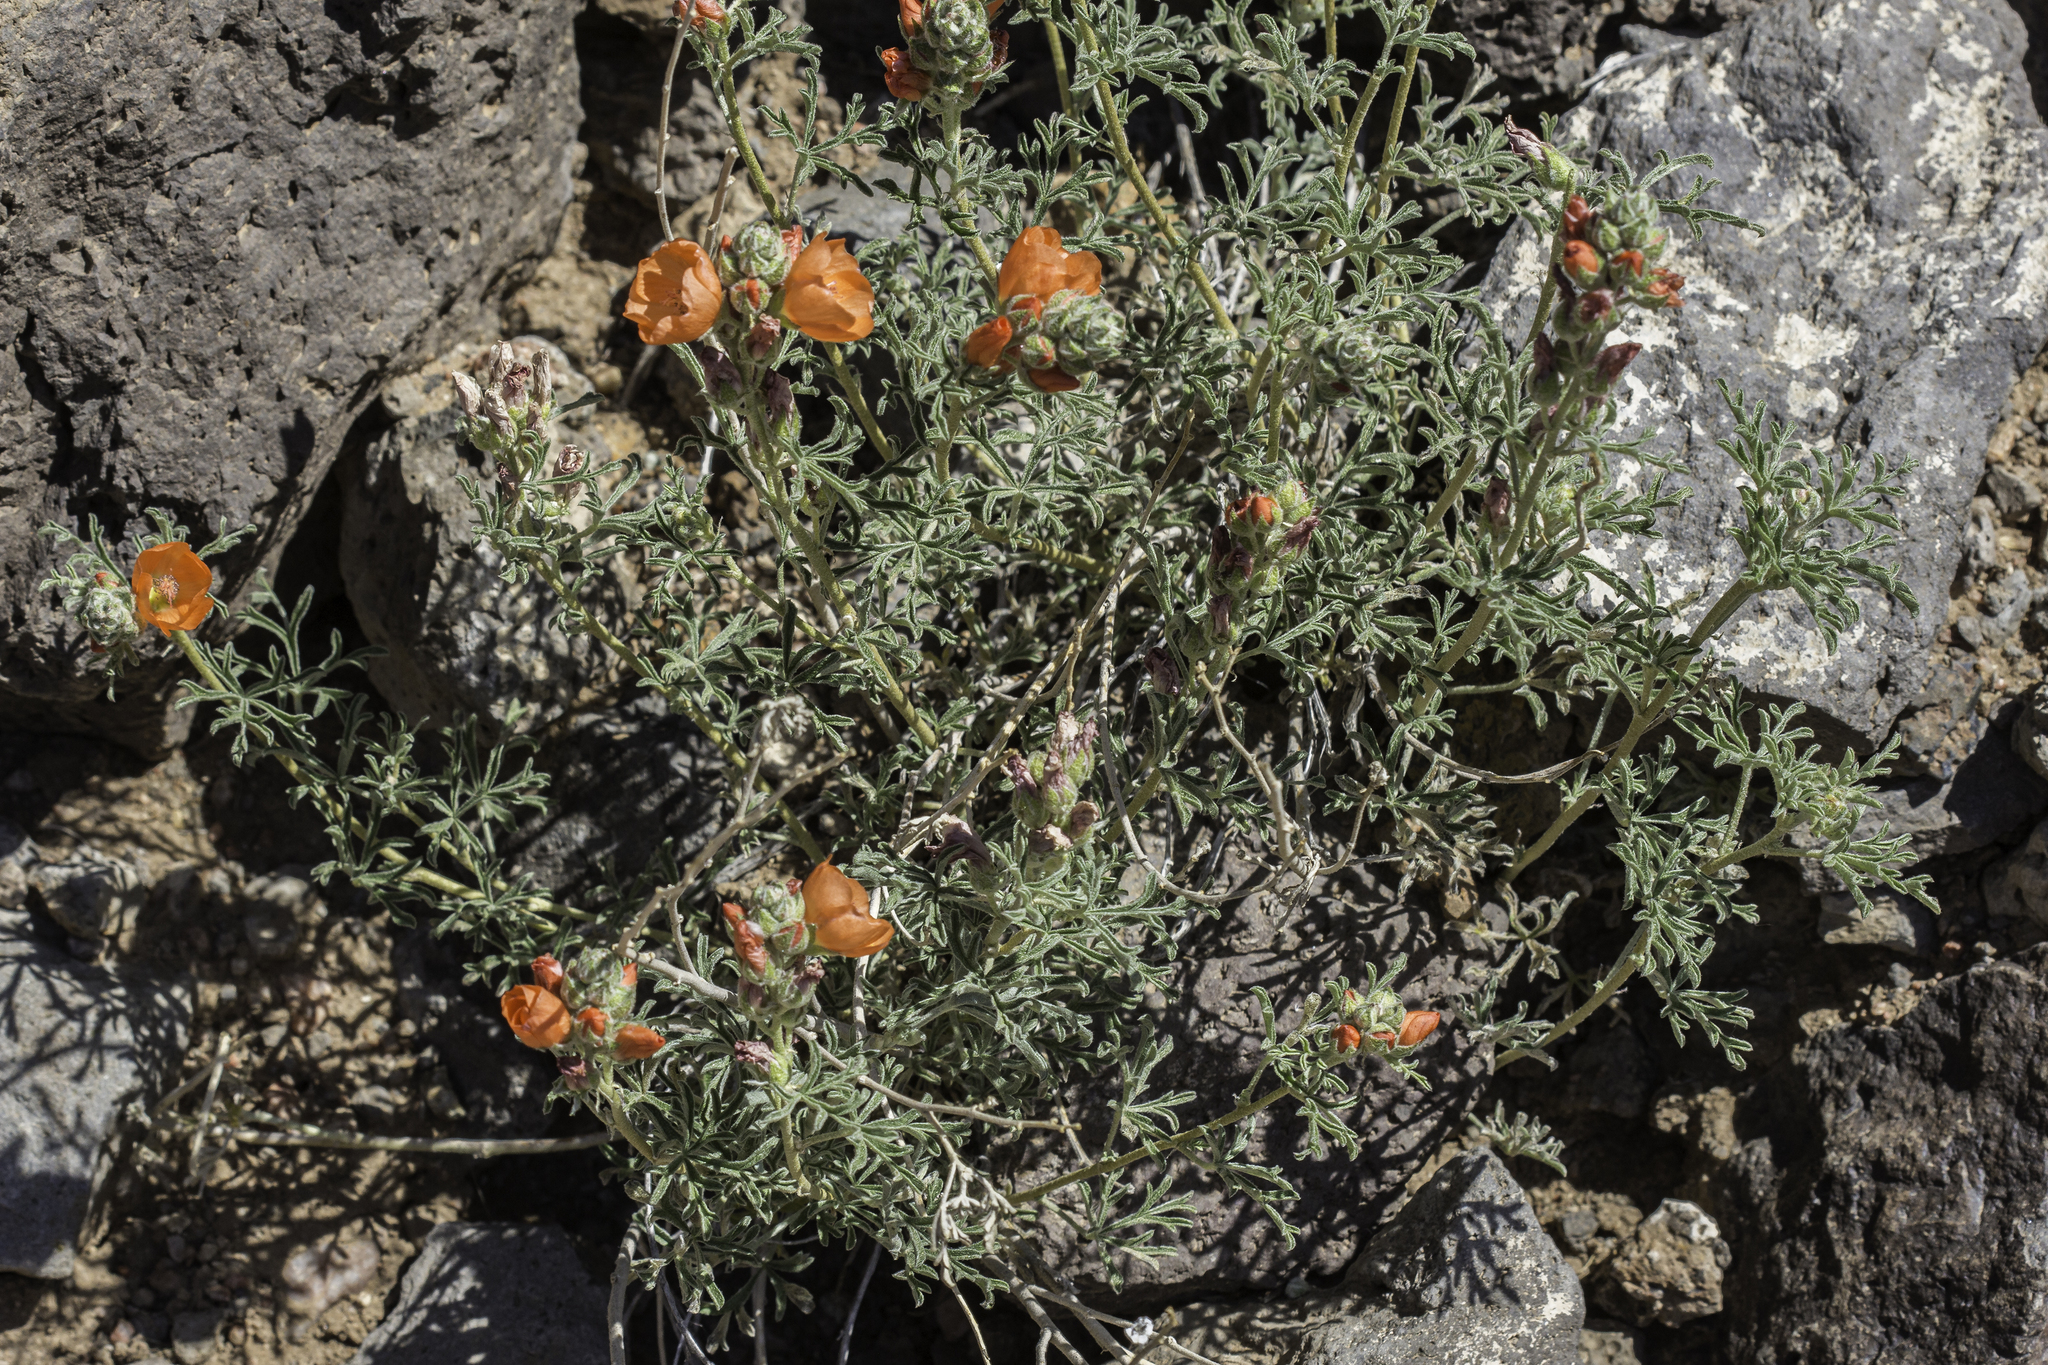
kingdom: Plantae
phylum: Tracheophyta
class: Magnoliopsida
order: Malvales
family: Malvaceae
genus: Sphaeralcea
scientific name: Sphaeralcea coccinea
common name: Moss-rose
